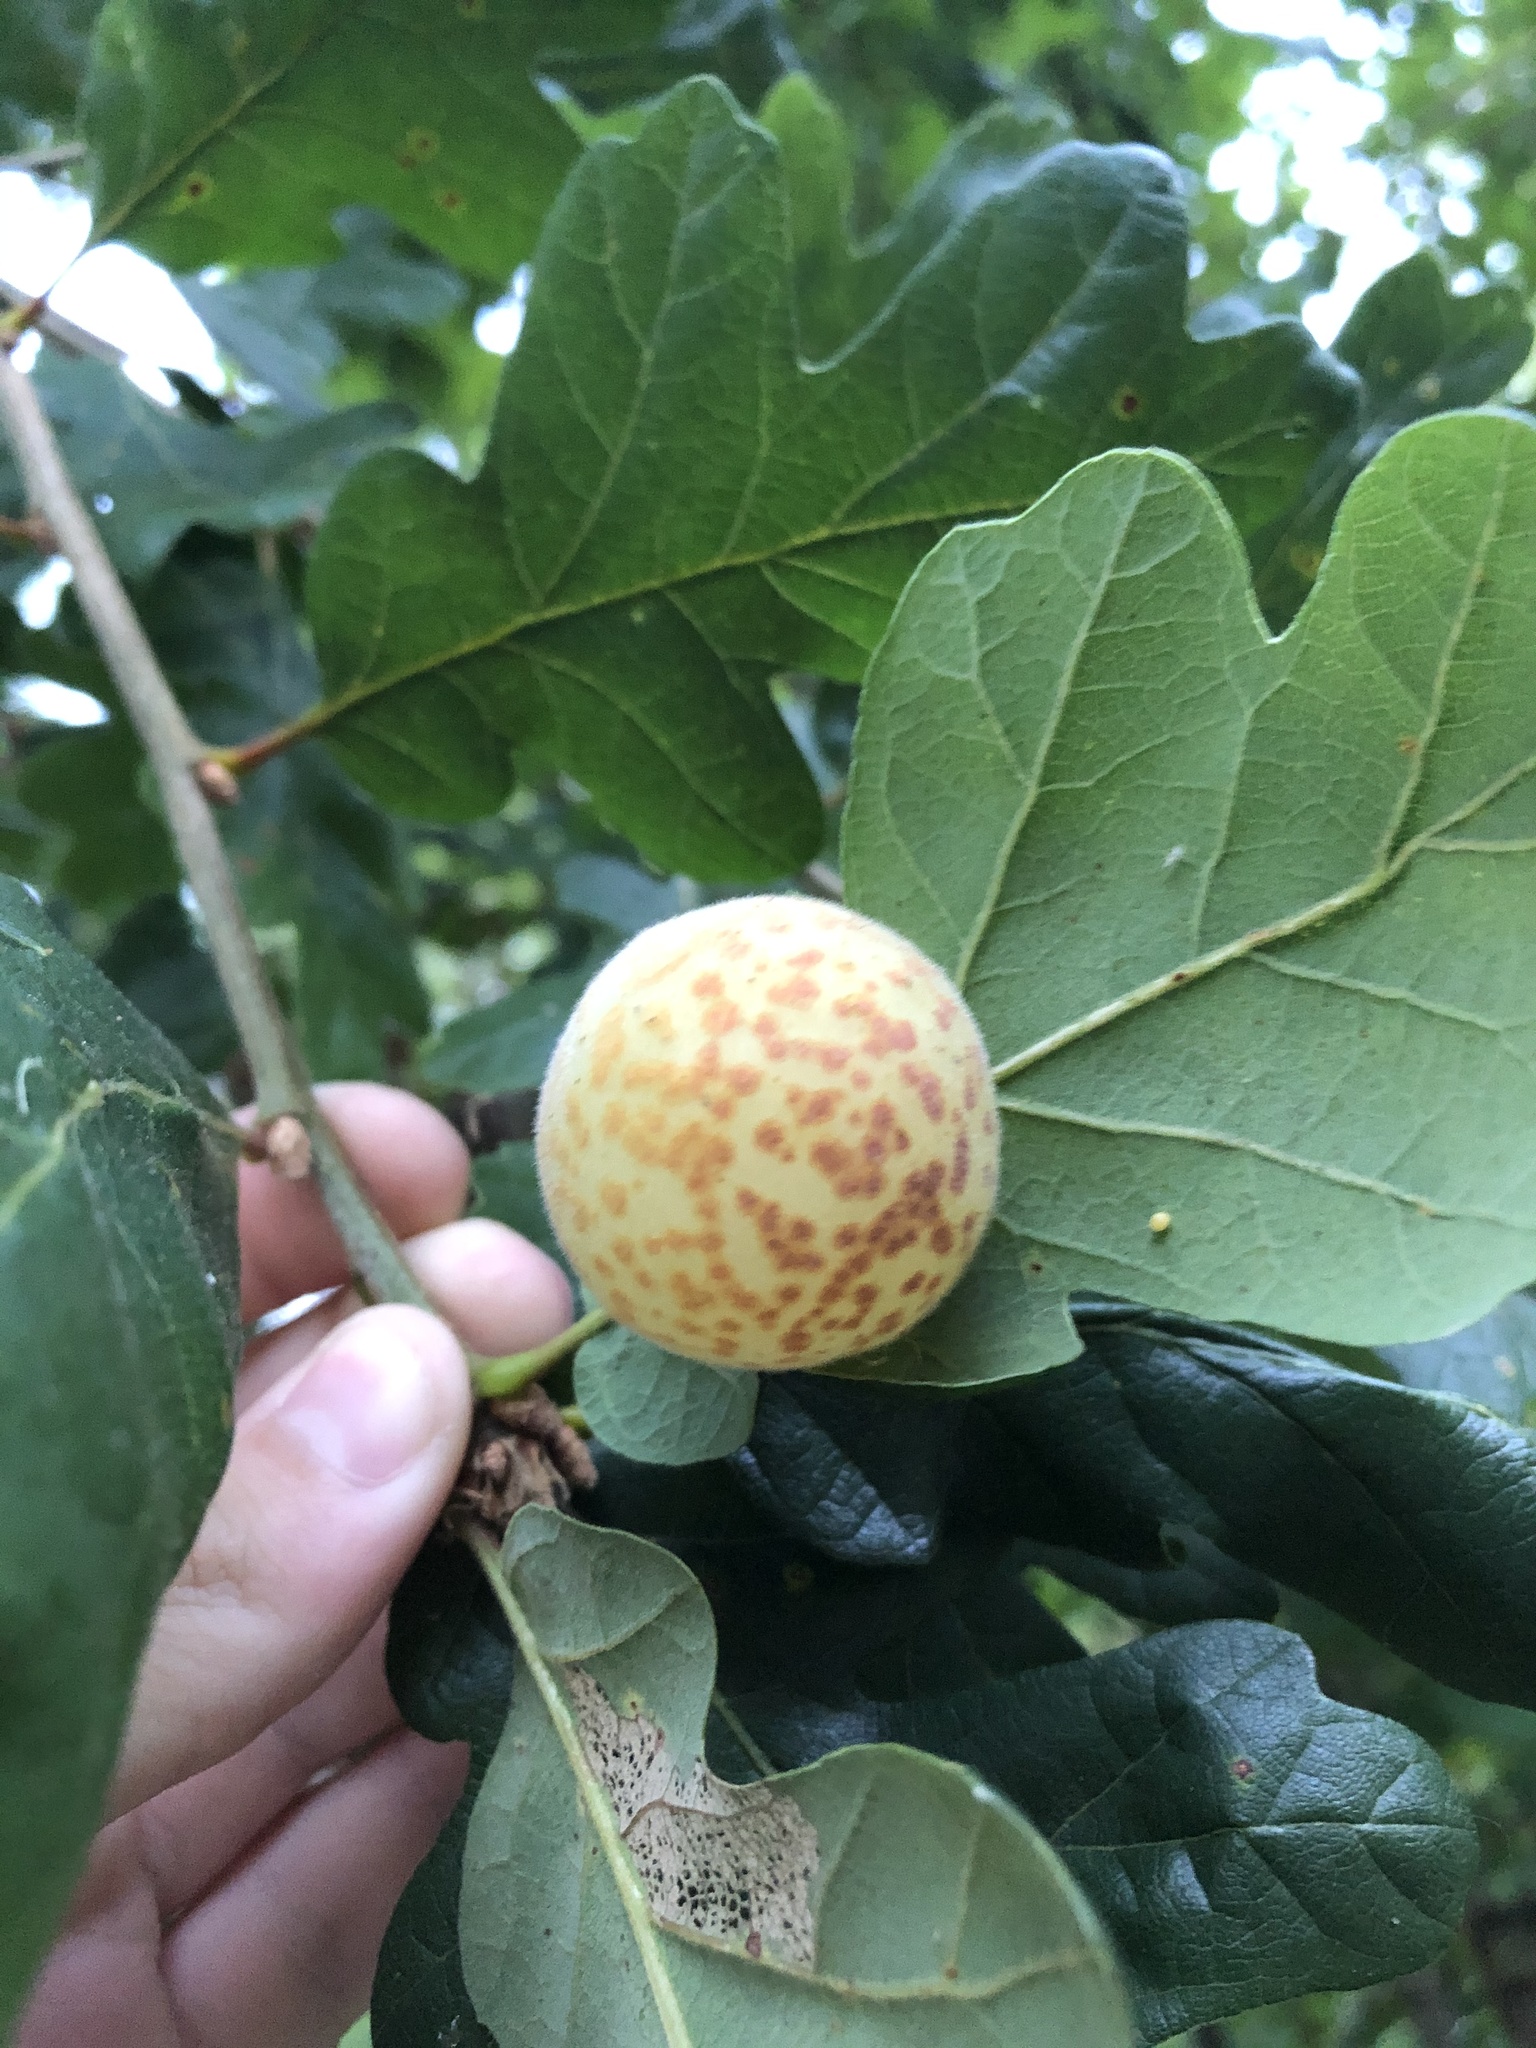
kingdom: Animalia
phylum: Arthropoda
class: Insecta
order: Hymenoptera
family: Cynipidae
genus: Cynips
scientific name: Cynips
